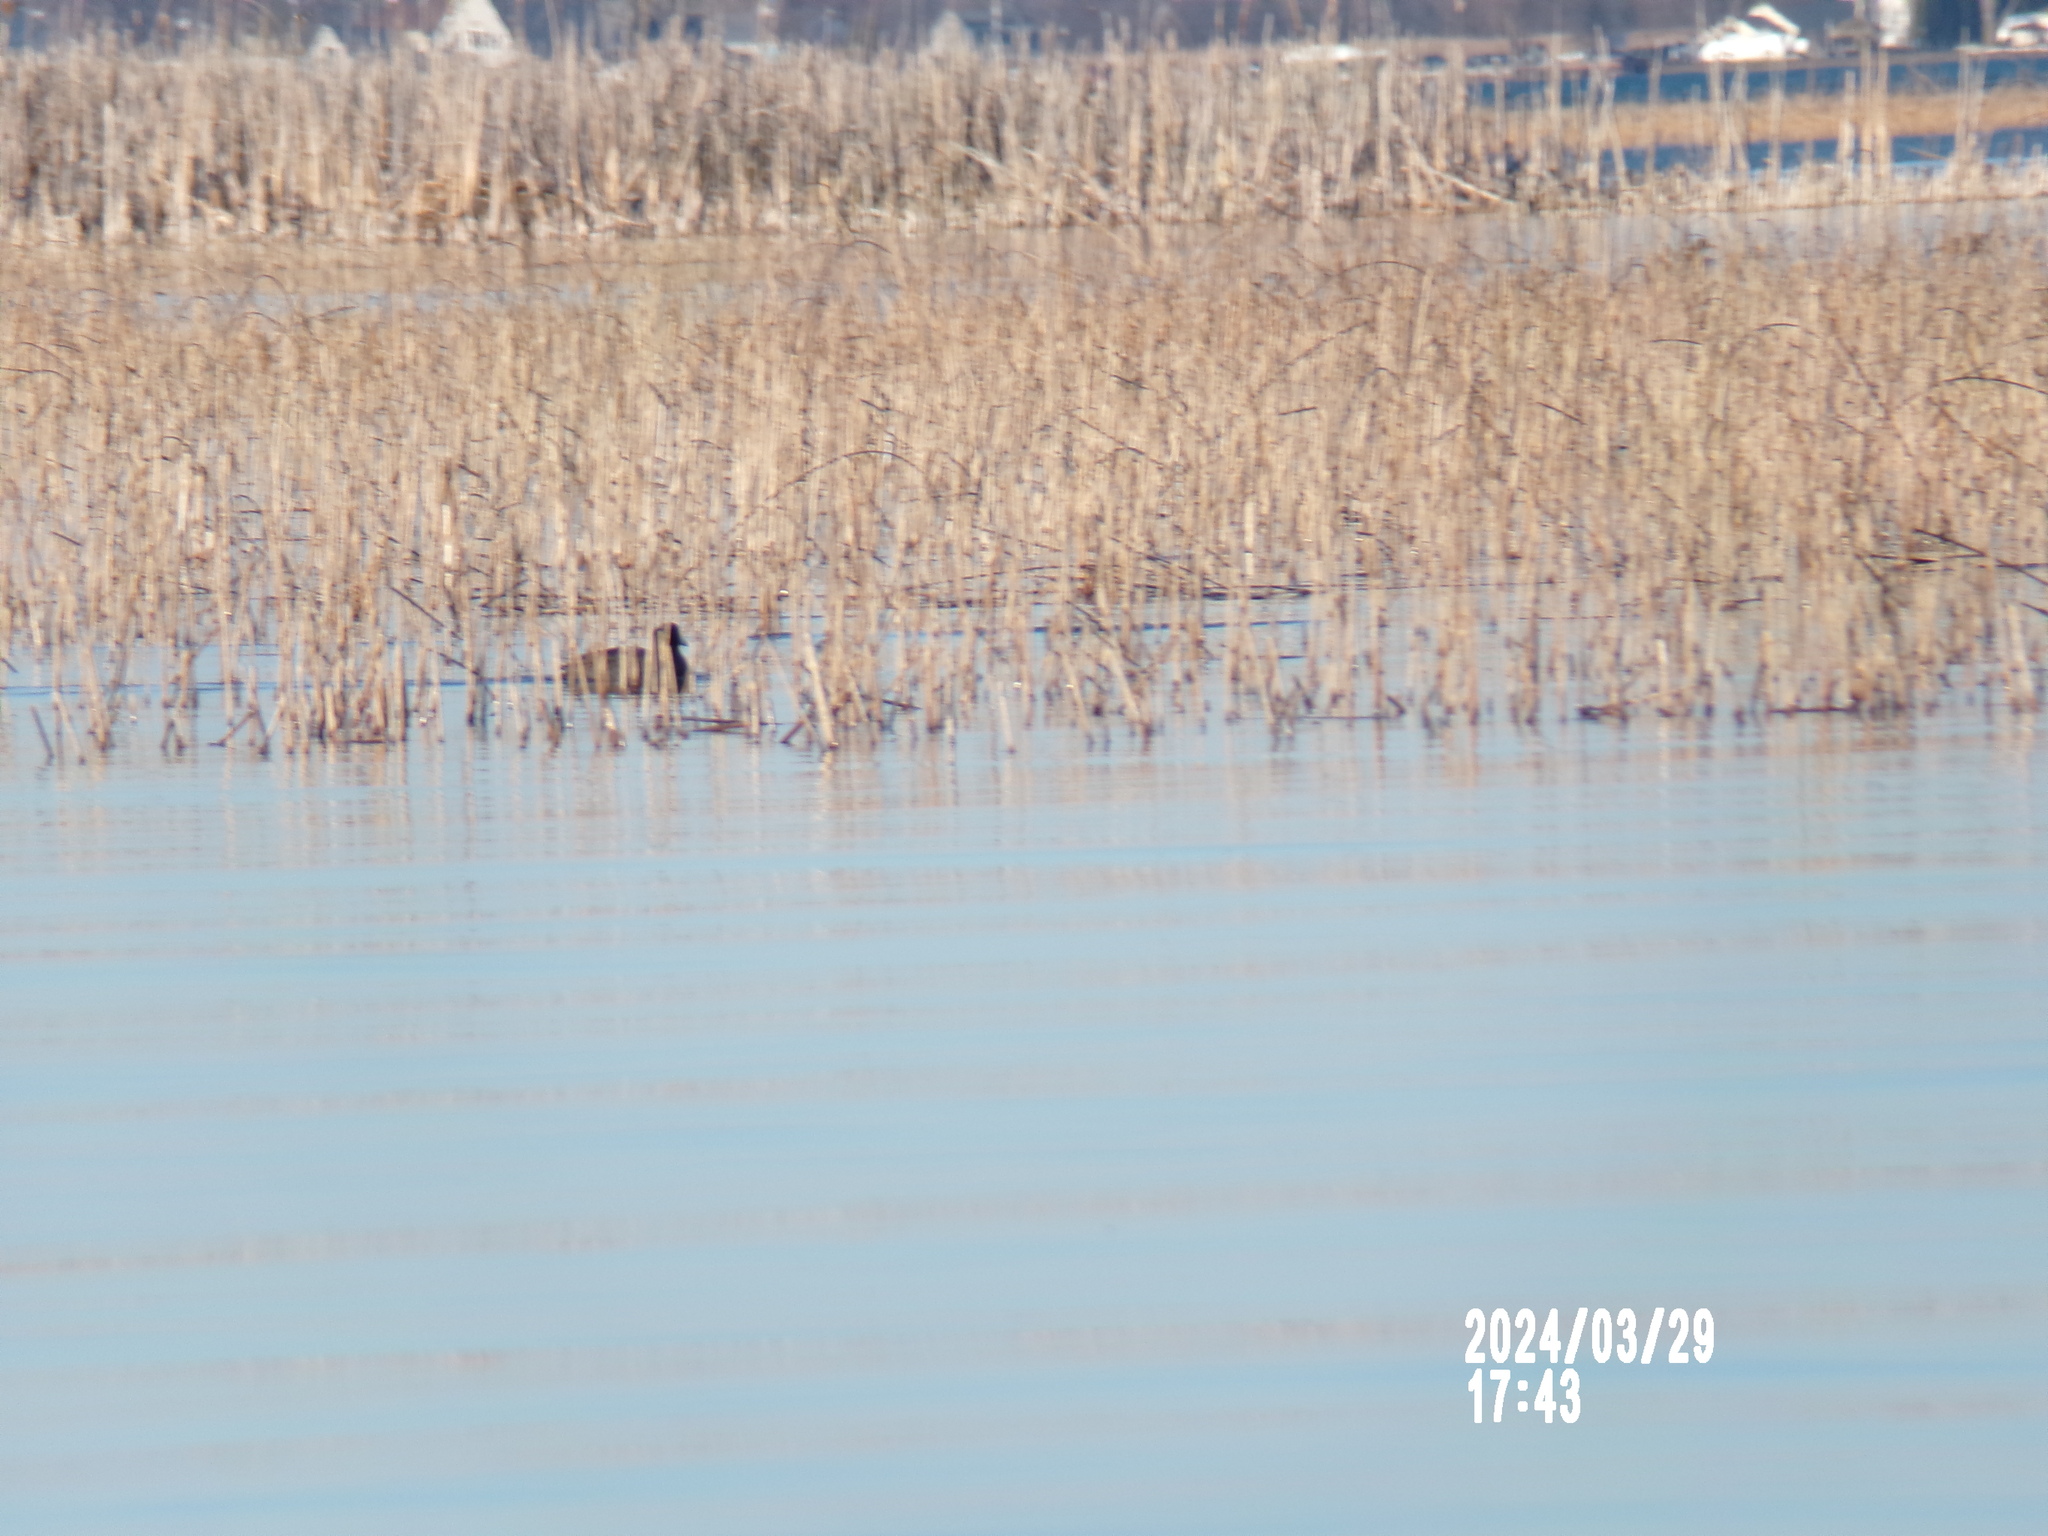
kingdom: Animalia
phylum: Chordata
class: Aves
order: Gruiformes
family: Rallidae
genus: Fulica
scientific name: Fulica americana
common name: American coot
